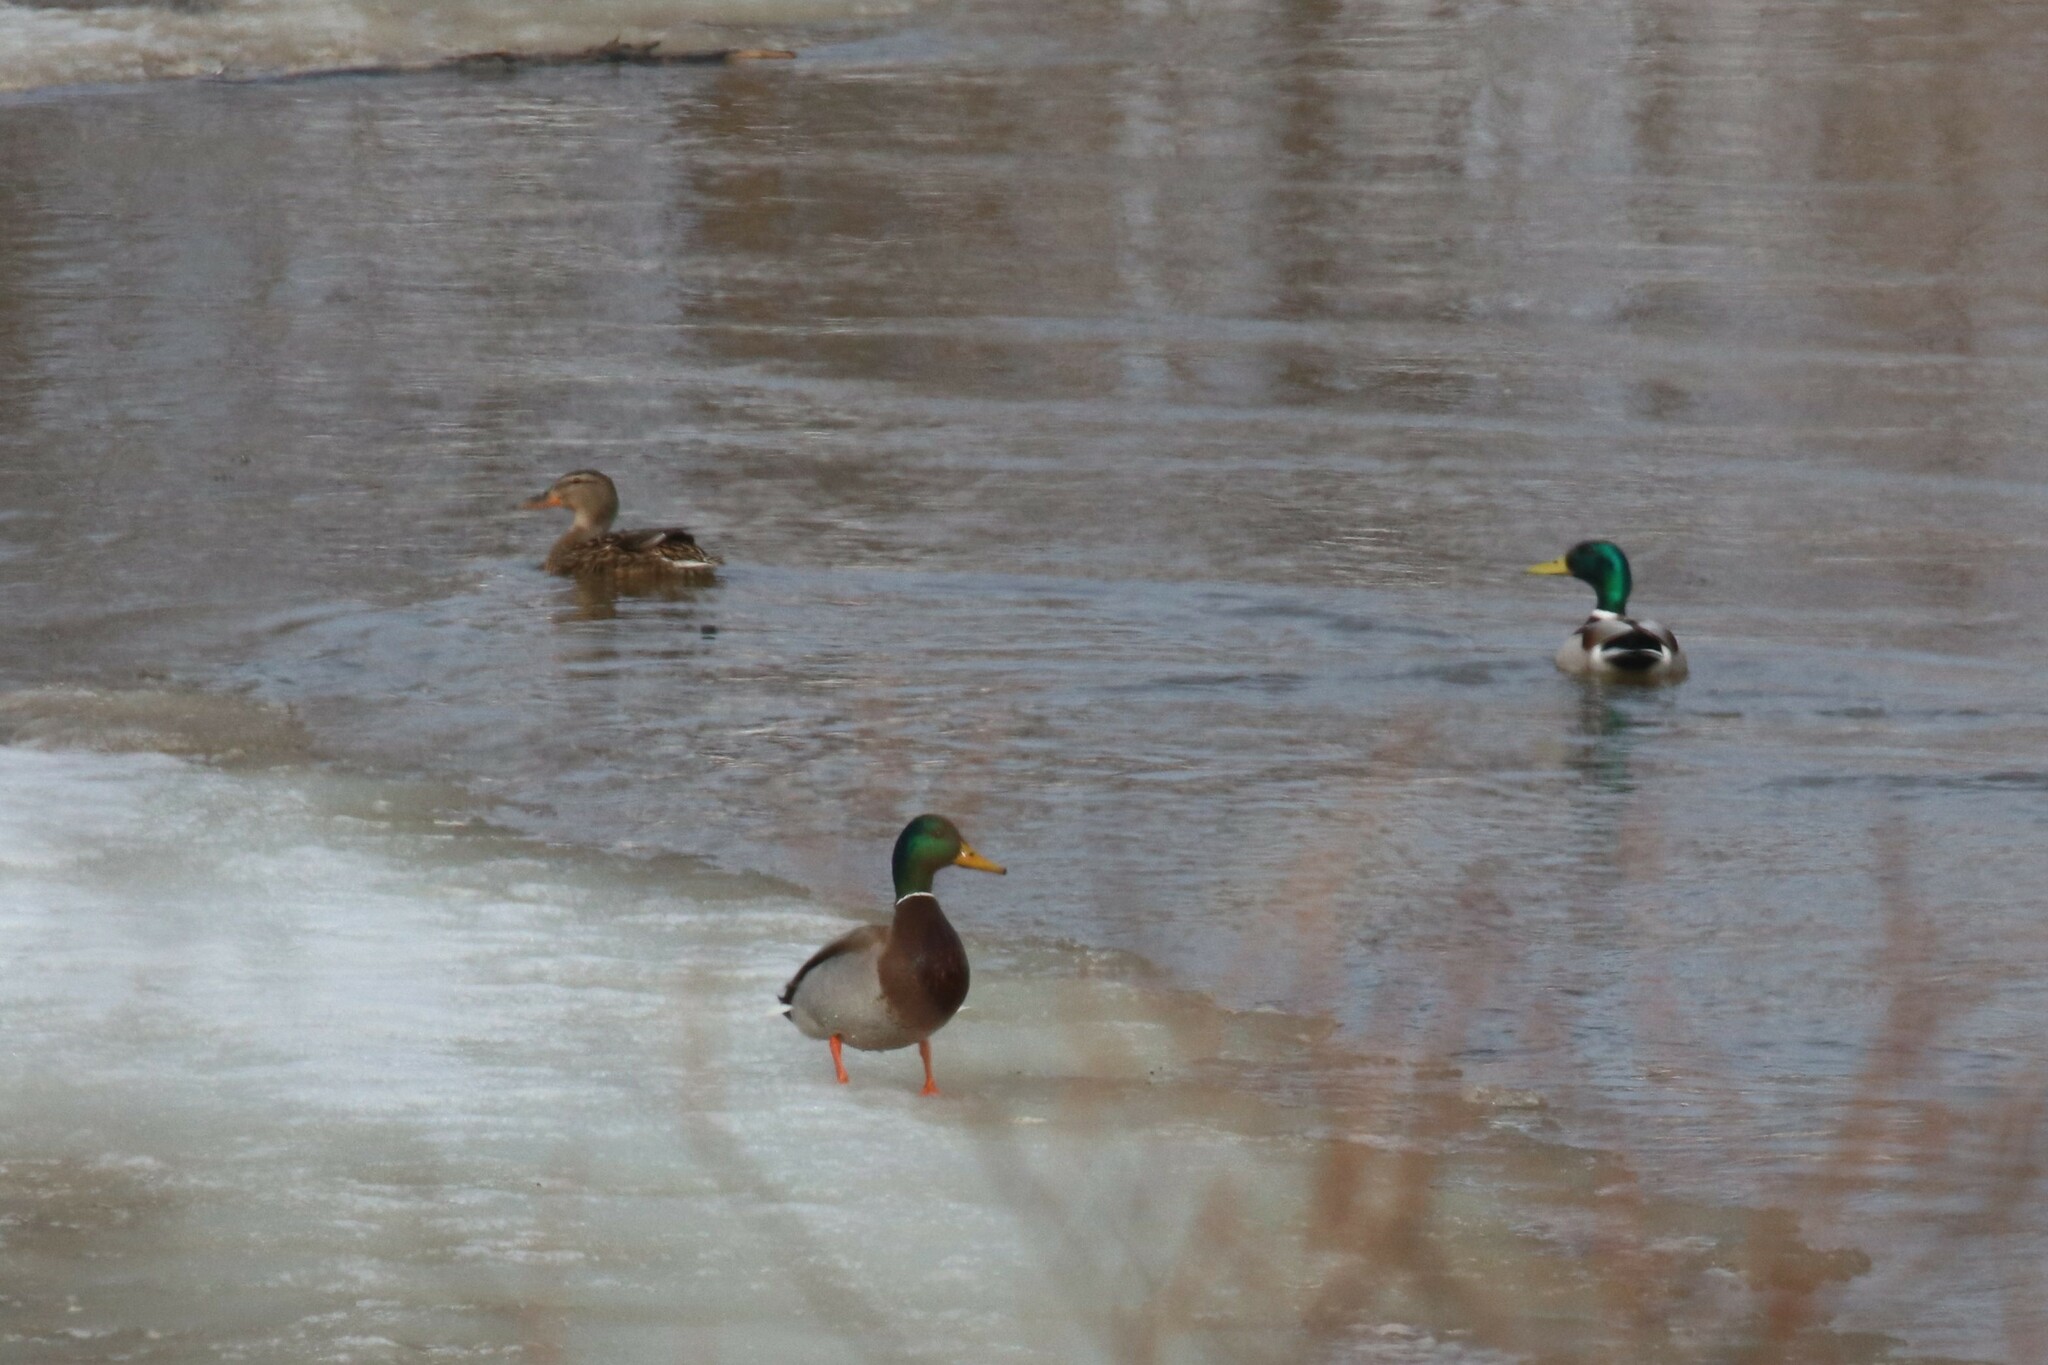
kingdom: Animalia
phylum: Chordata
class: Aves
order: Anseriformes
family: Anatidae
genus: Anas
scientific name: Anas platyrhynchos
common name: Mallard
